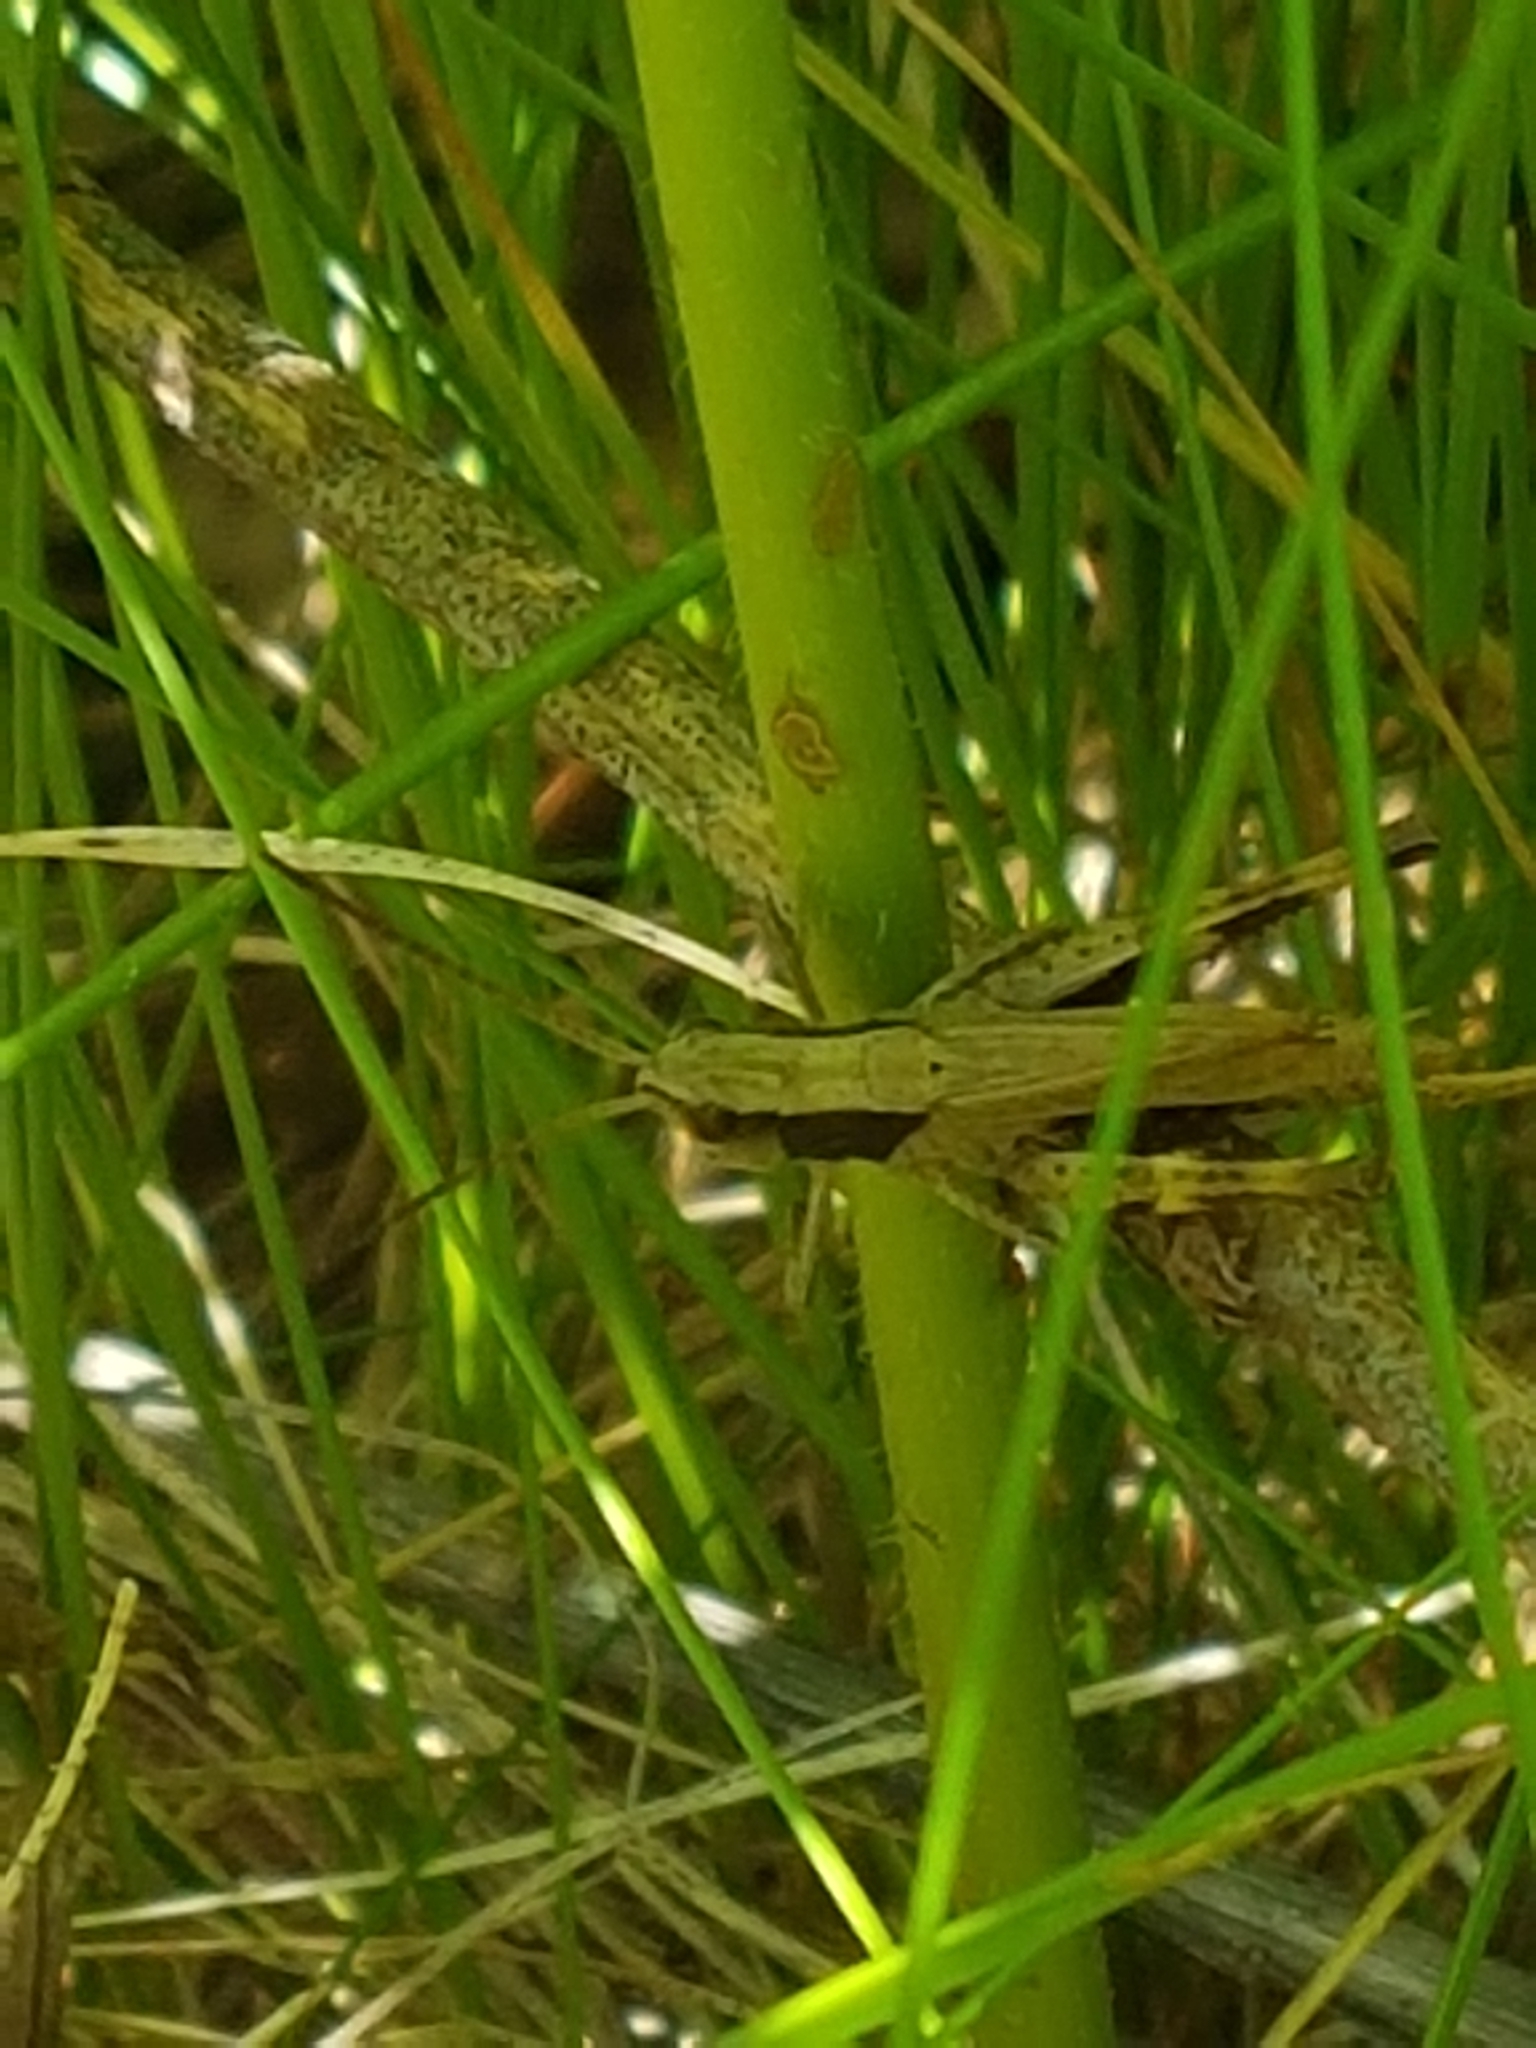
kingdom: Animalia
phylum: Arthropoda
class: Insecta
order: Orthoptera
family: Acrididae
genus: Chloealtis
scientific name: Chloealtis conspersa
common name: Sprinkled broad-winged grasshopper
